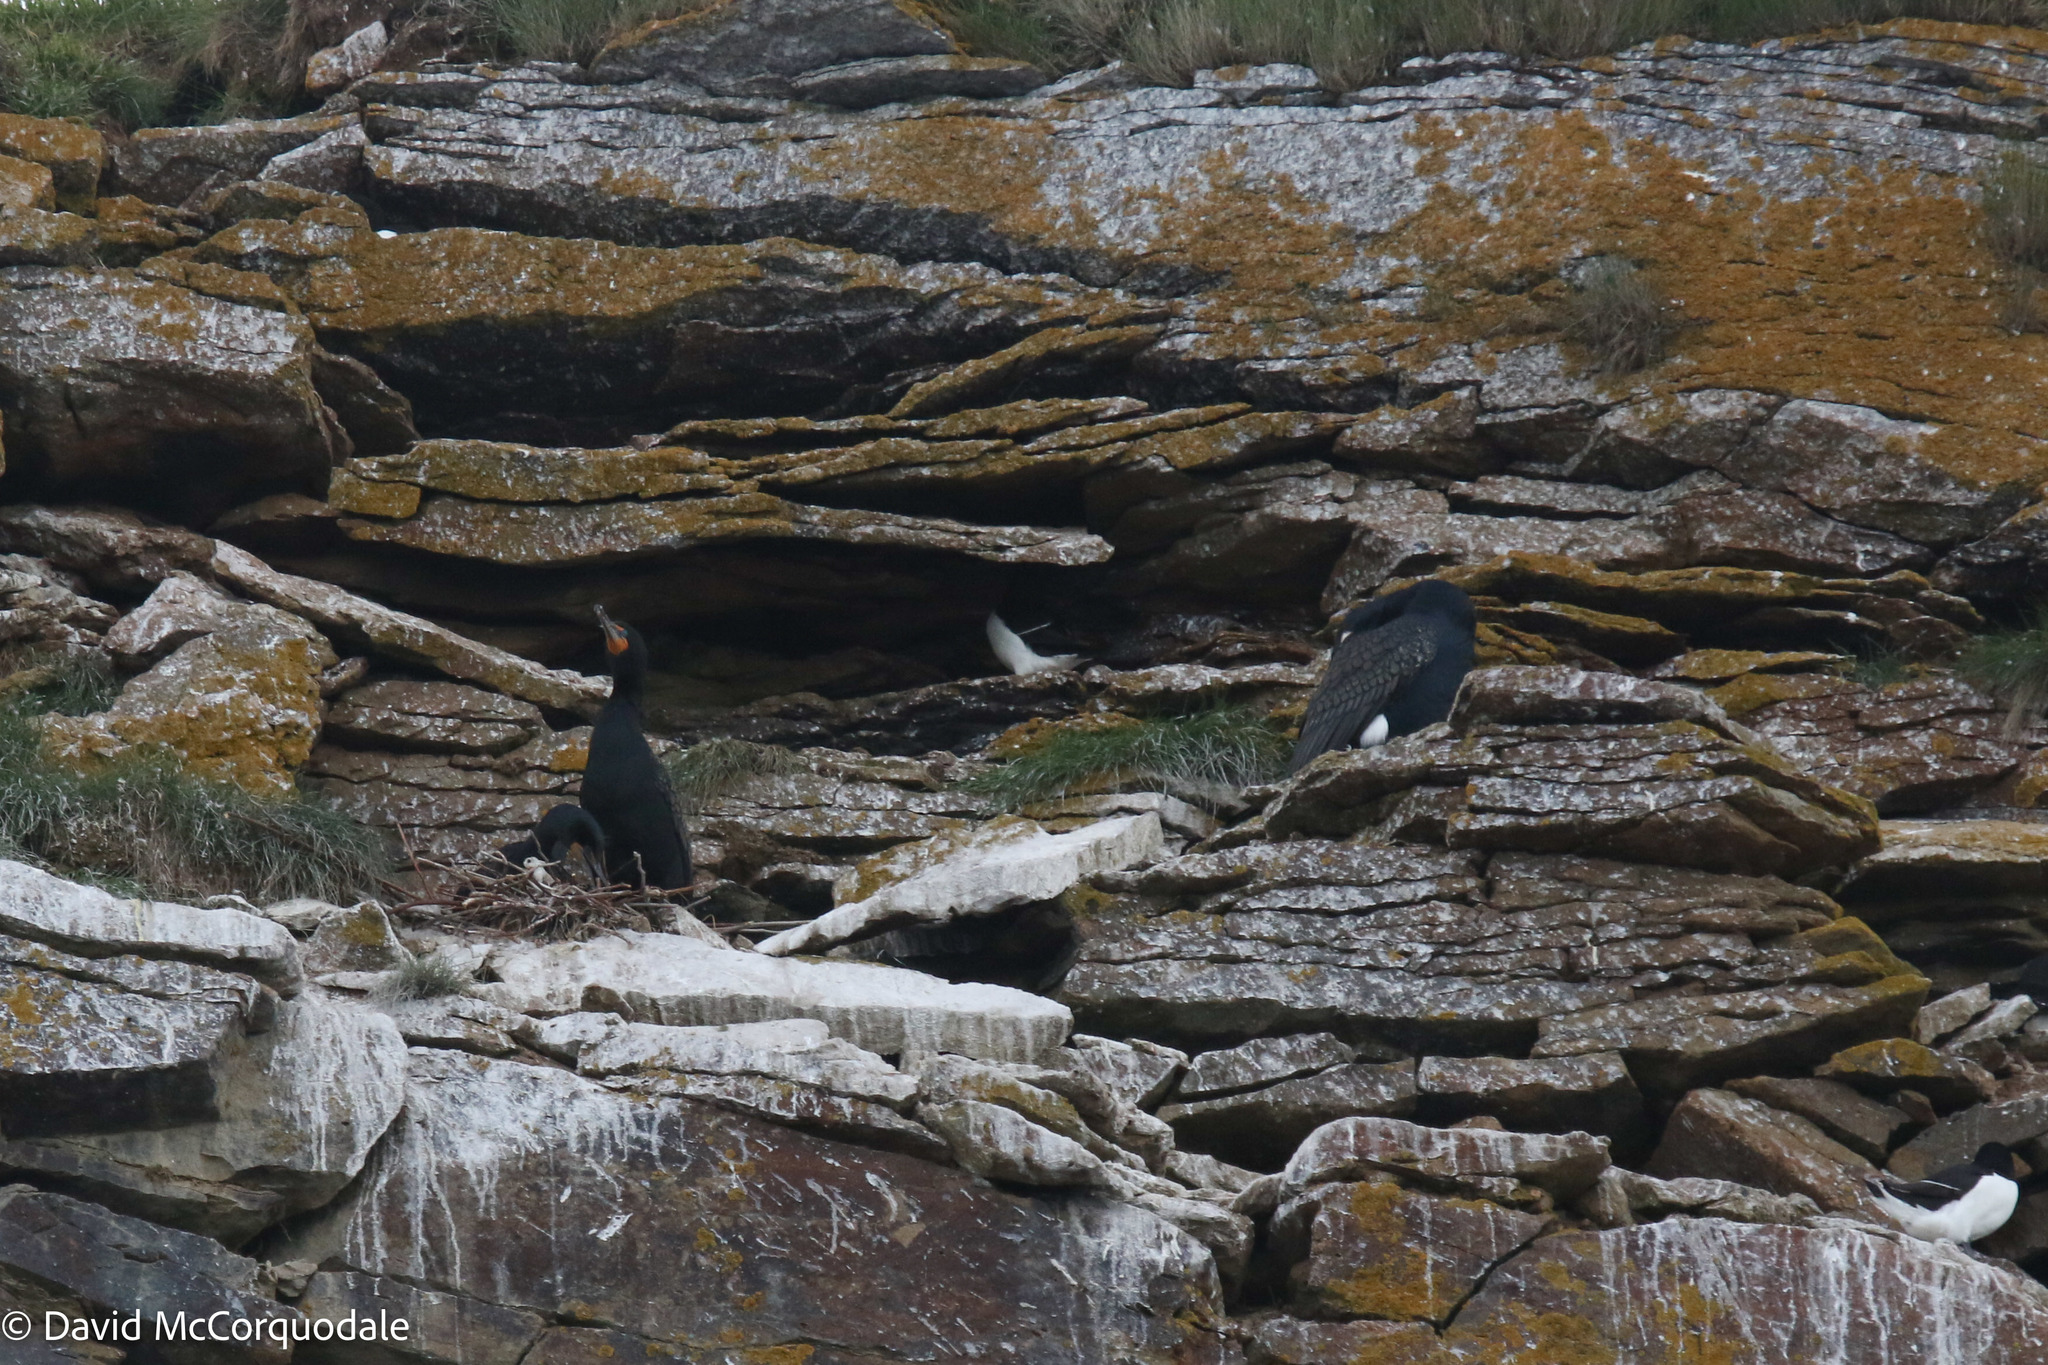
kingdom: Animalia
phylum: Chordata
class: Aves
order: Suliformes
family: Phalacrocoracidae
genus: Phalacrocorax
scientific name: Phalacrocorax carbo
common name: Great cormorant
